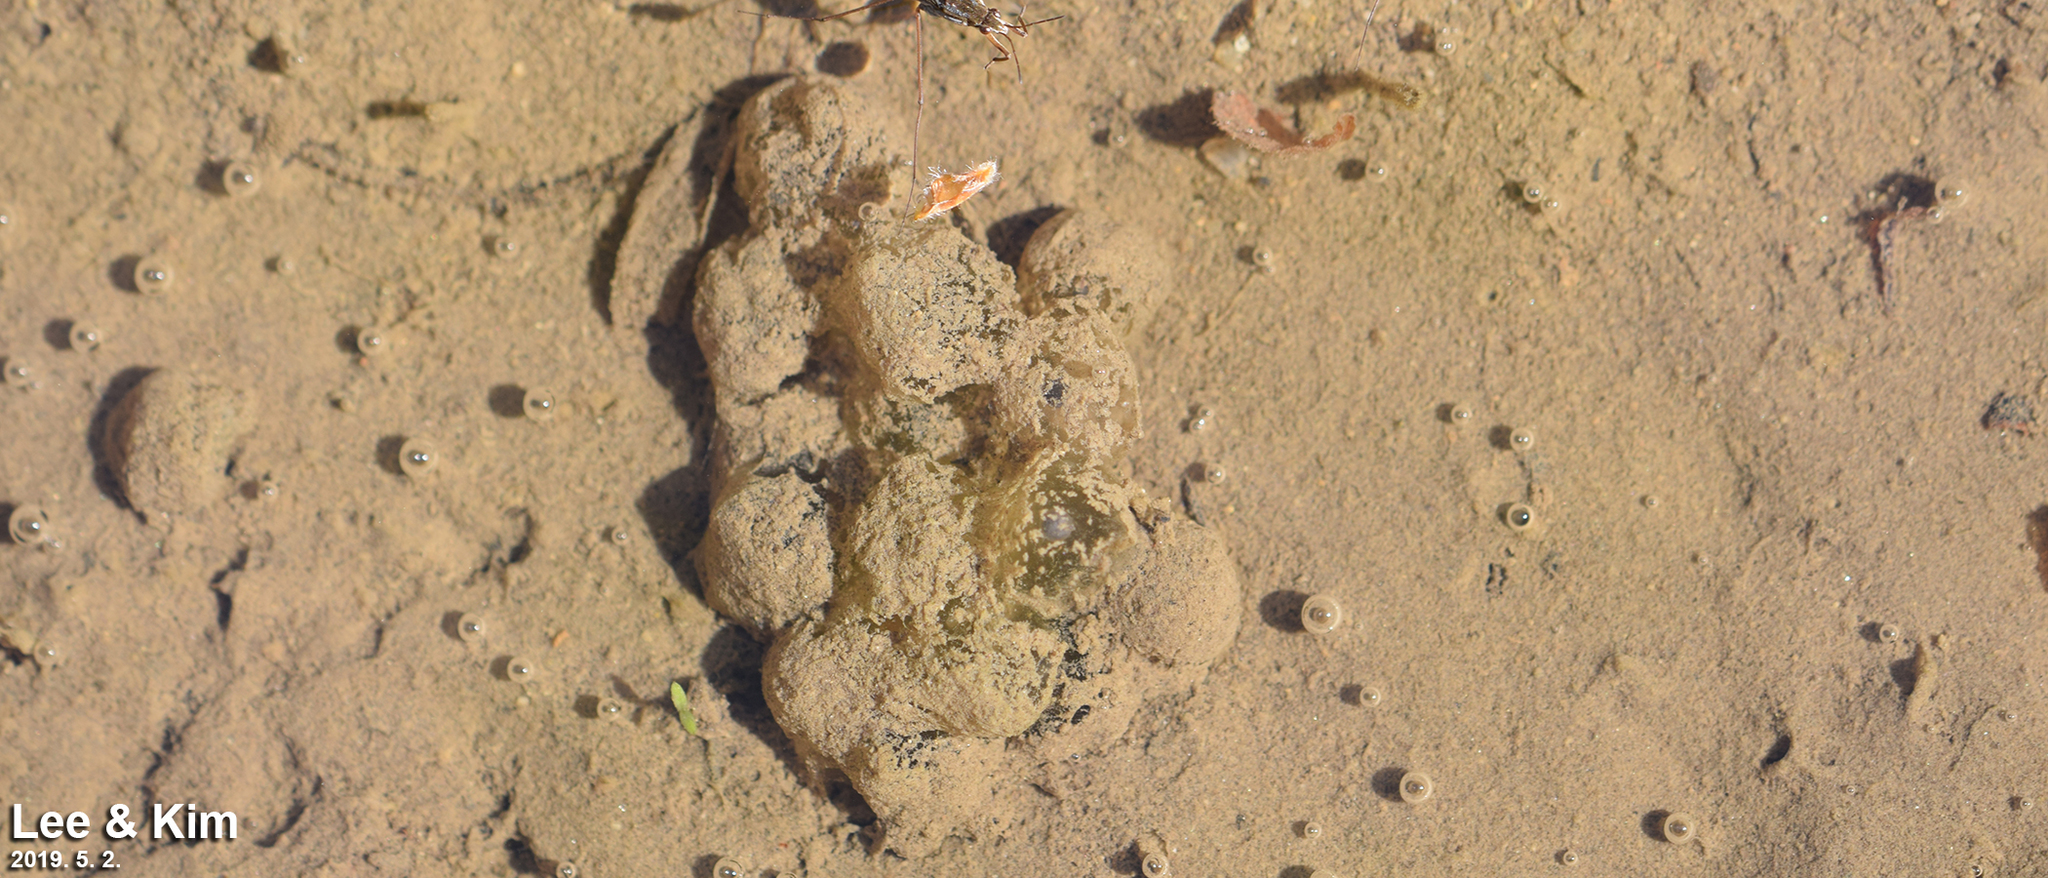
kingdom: Animalia
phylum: Chordata
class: Amphibia
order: Anura
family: Bombinatoridae
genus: Bombina
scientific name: Bombina orientalis
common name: Oriental firebelly toad
